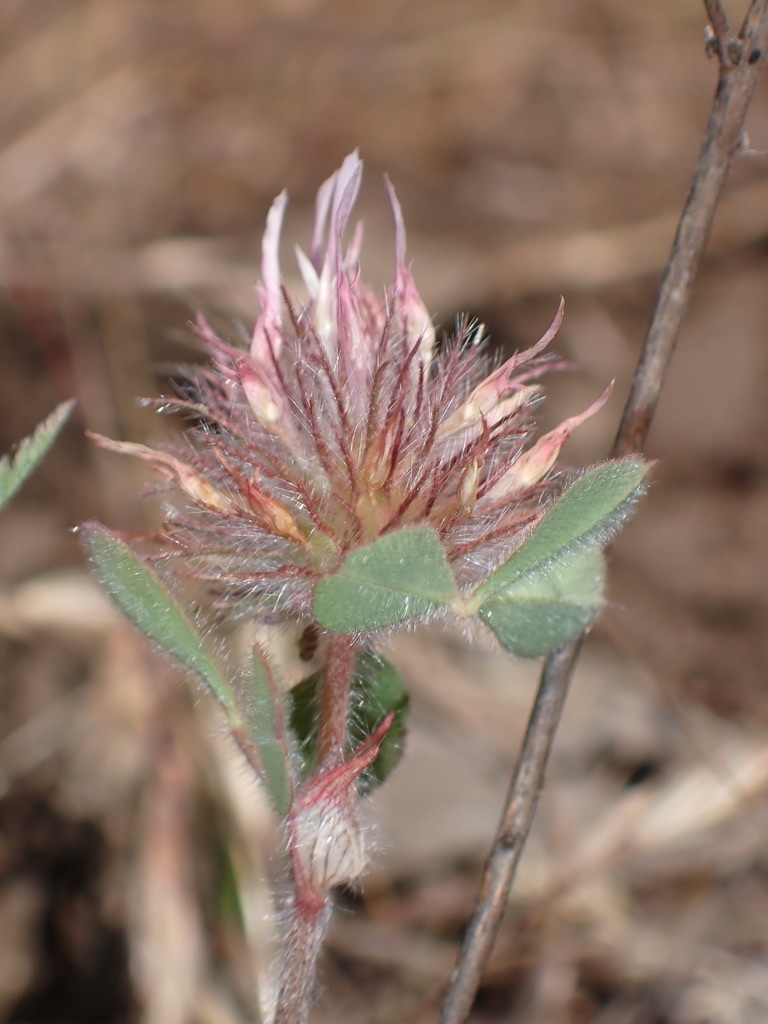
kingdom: Plantae
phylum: Tracheophyta
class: Magnoliopsida
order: Fabales
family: Fabaceae
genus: Trifolium
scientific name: Trifolium hirtum
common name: Rose clover
